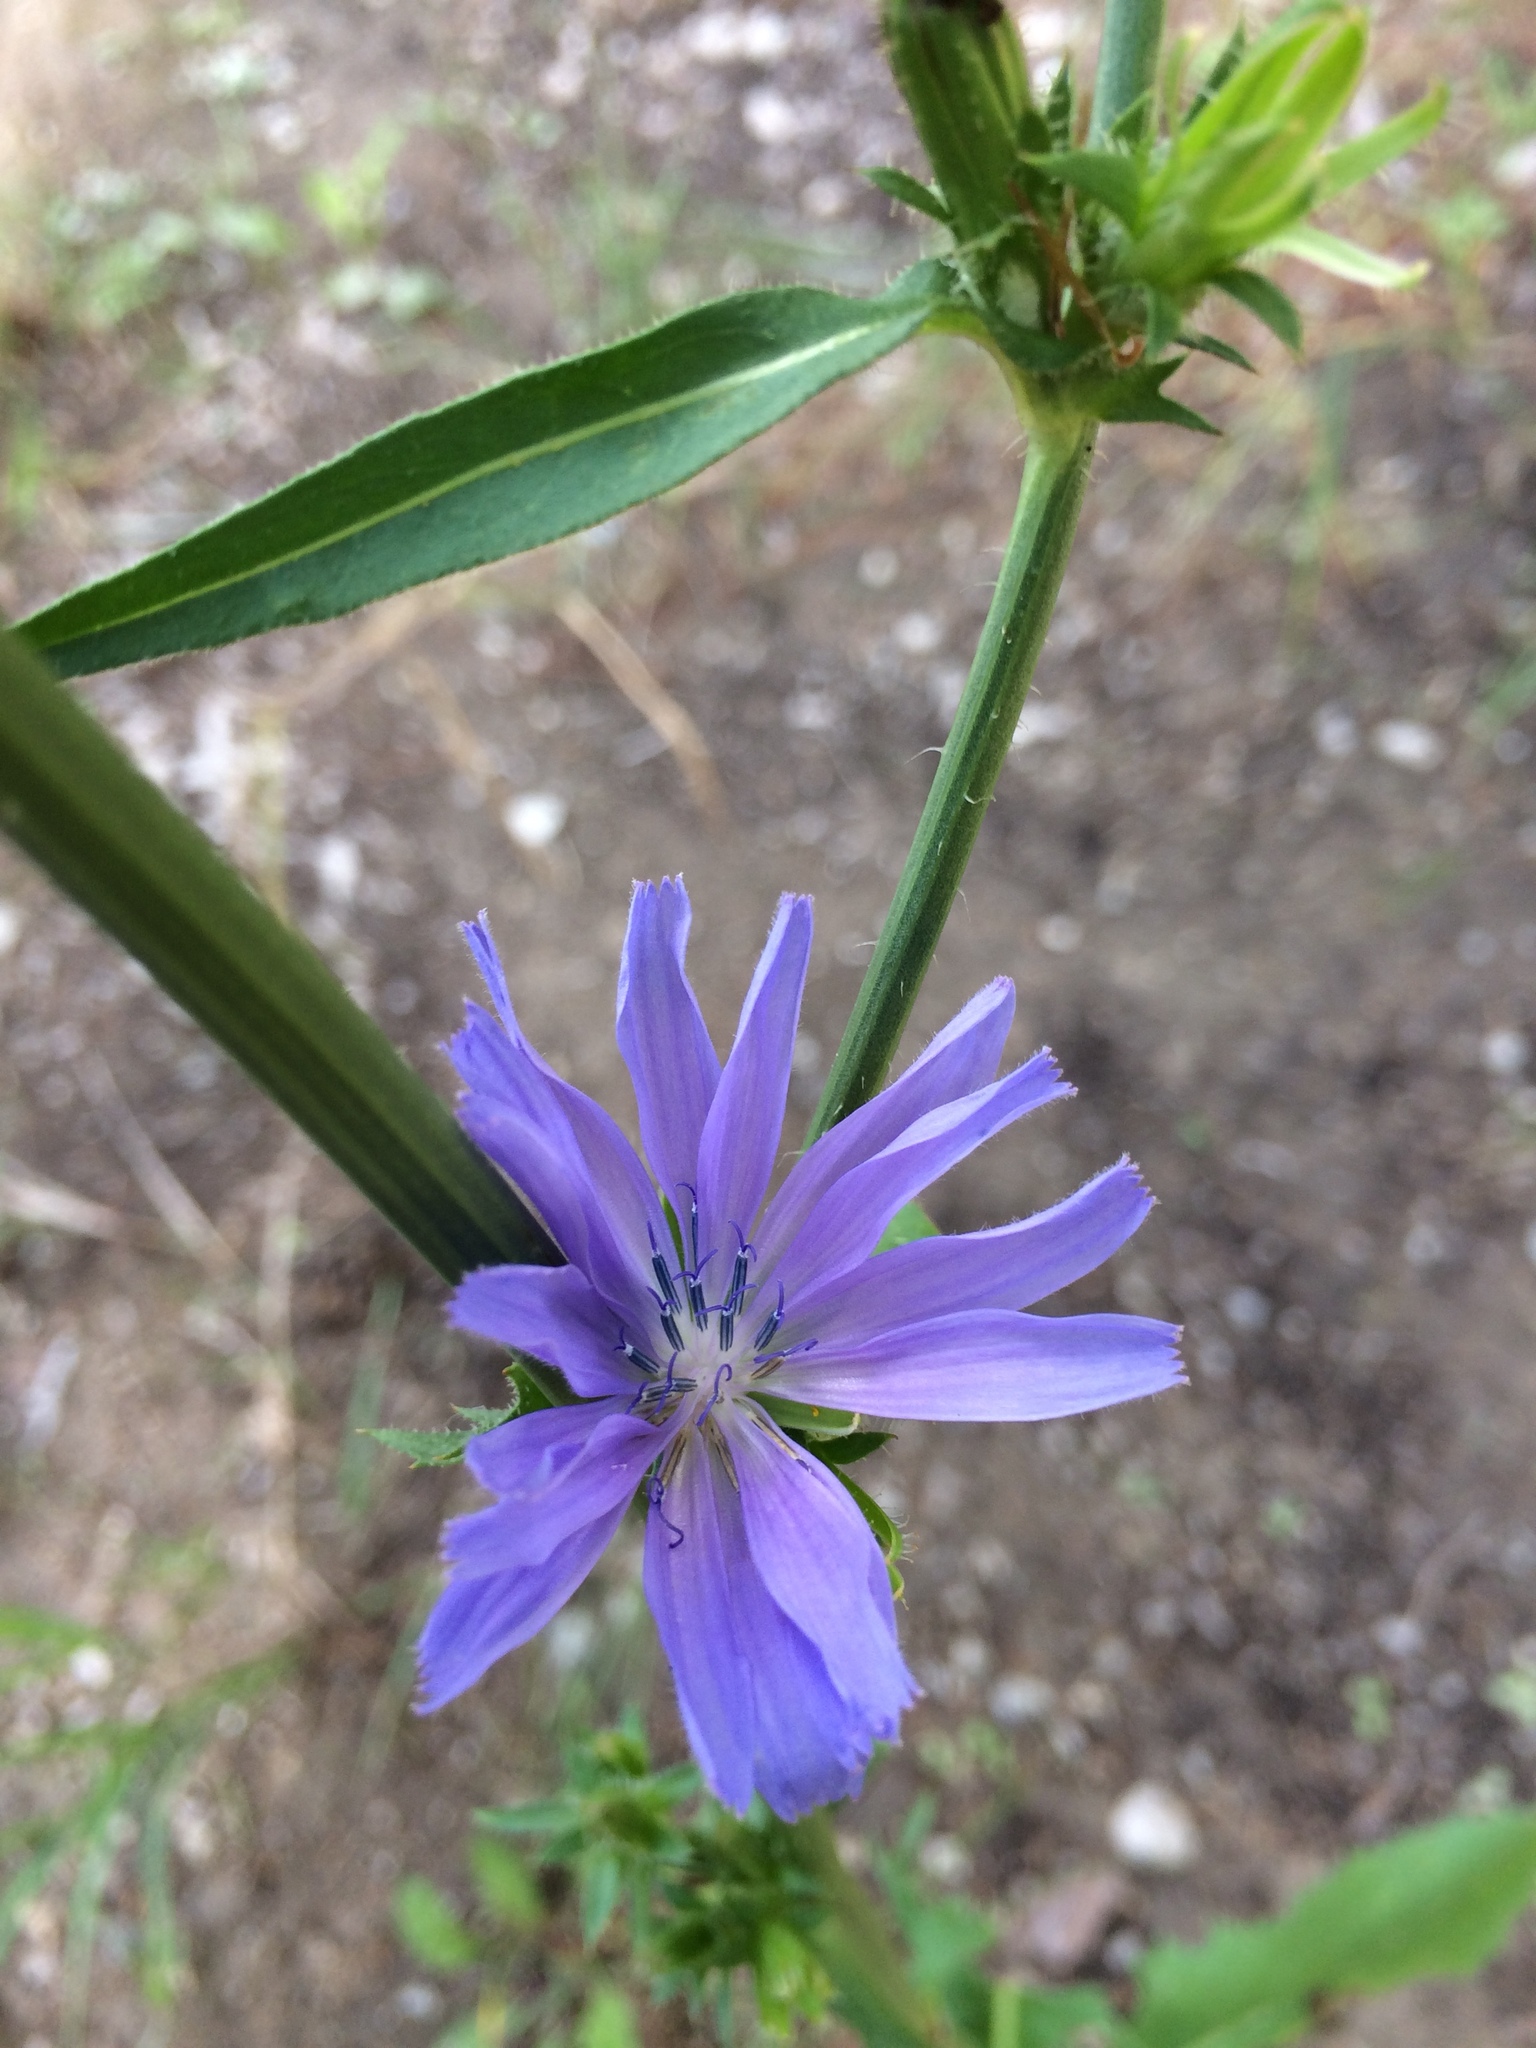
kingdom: Plantae
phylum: Tracheophyta
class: Magnoliopsida
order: Asterales
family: Asteraceae
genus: Cichorium
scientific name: Cichorium intybus
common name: Chicory
